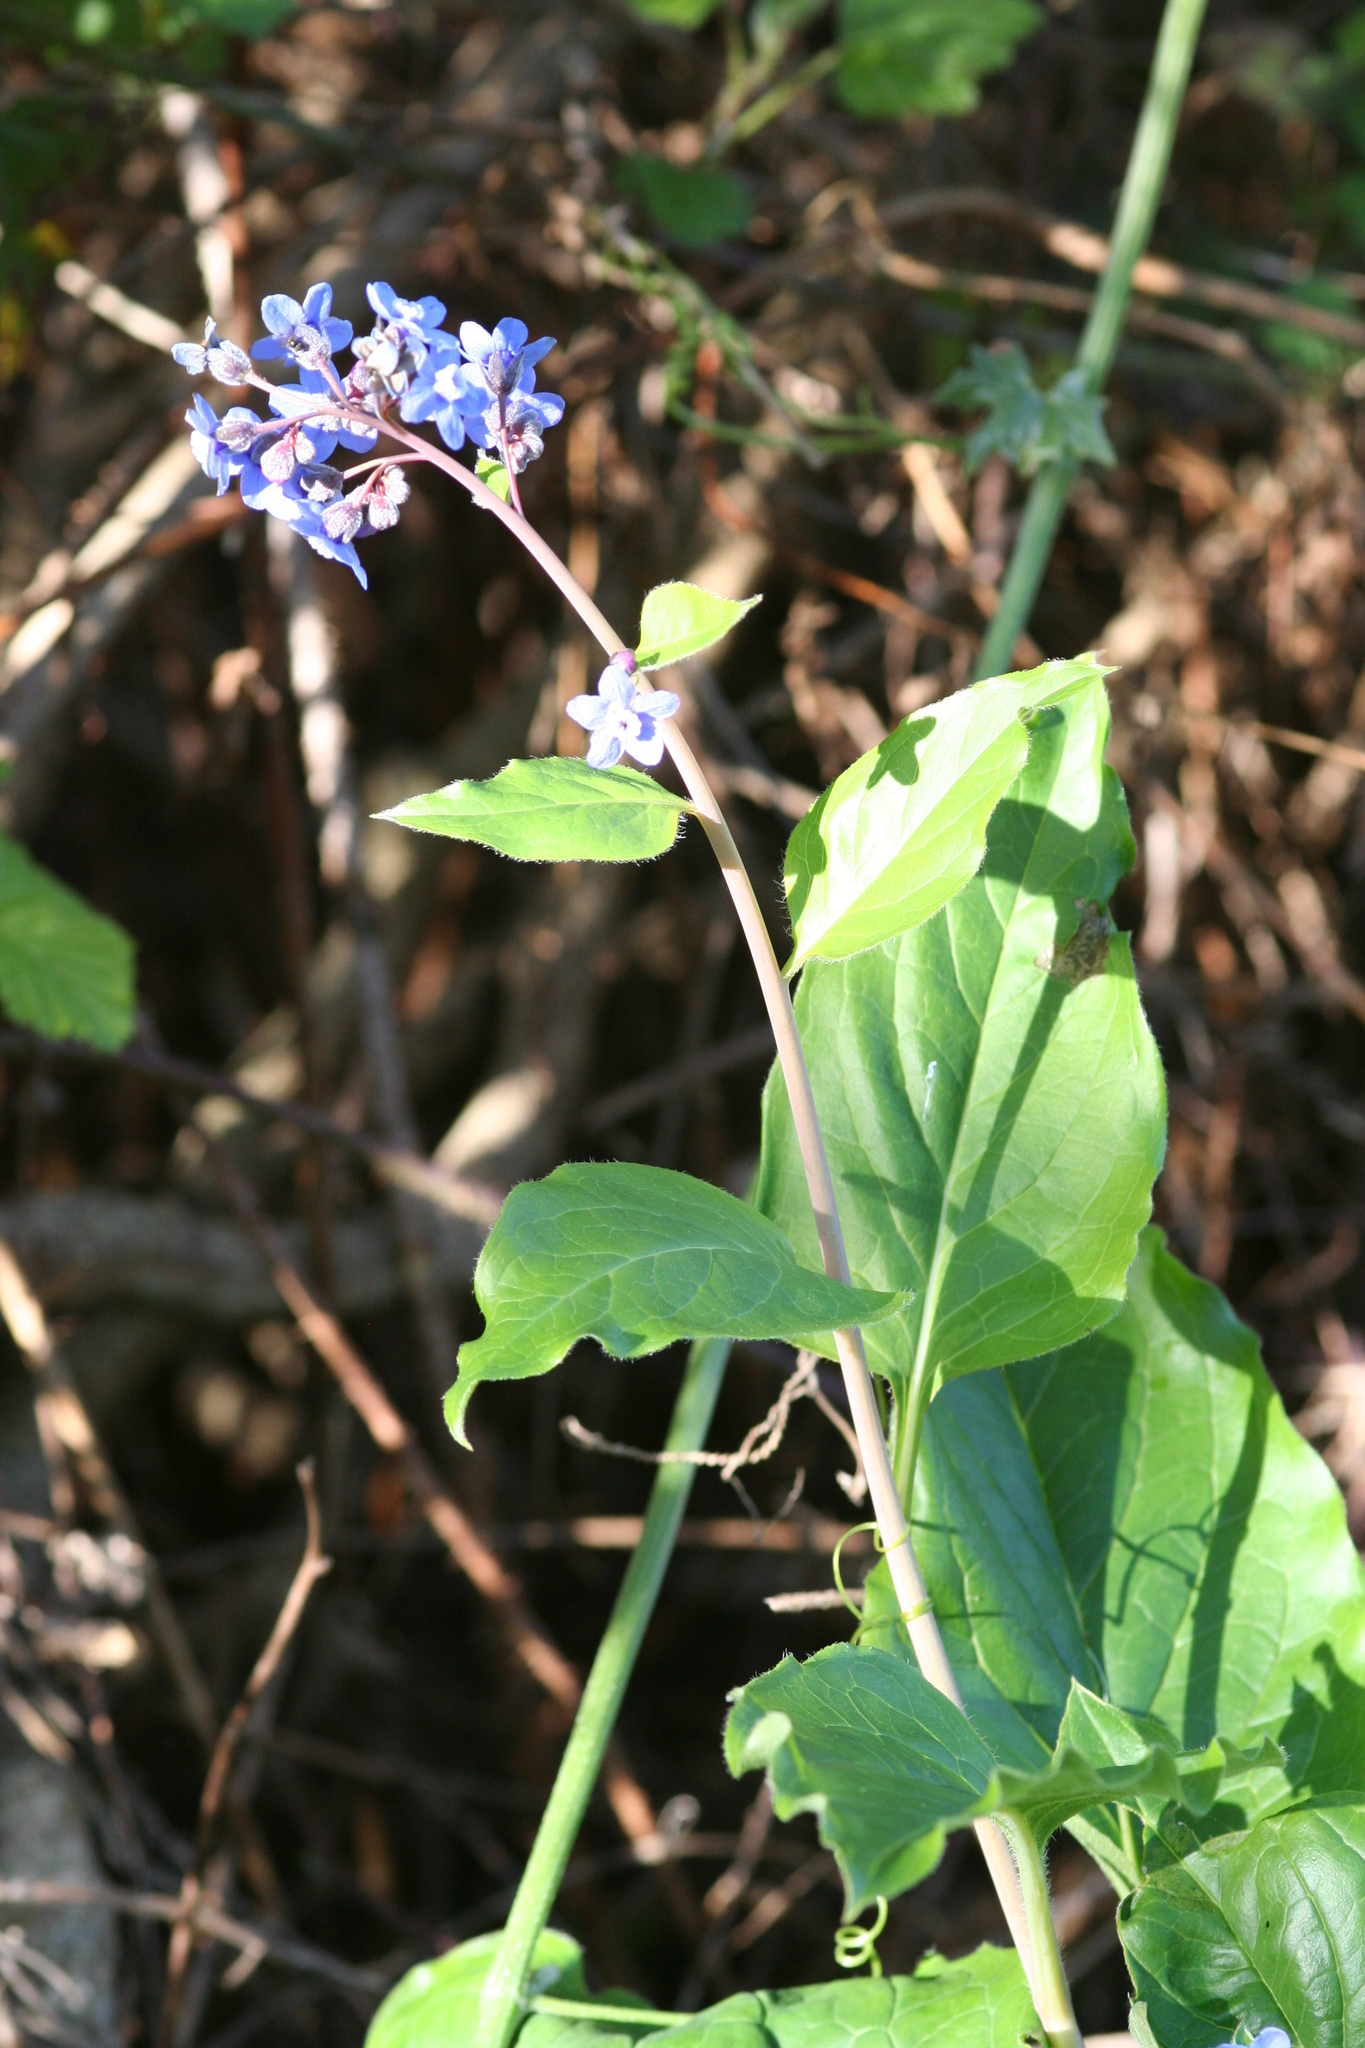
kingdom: Plantae
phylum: Tracheophyta
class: Magnoliopsida
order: Boraginales
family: Boraginaceae
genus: Adelinia
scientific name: Adelinia grande
